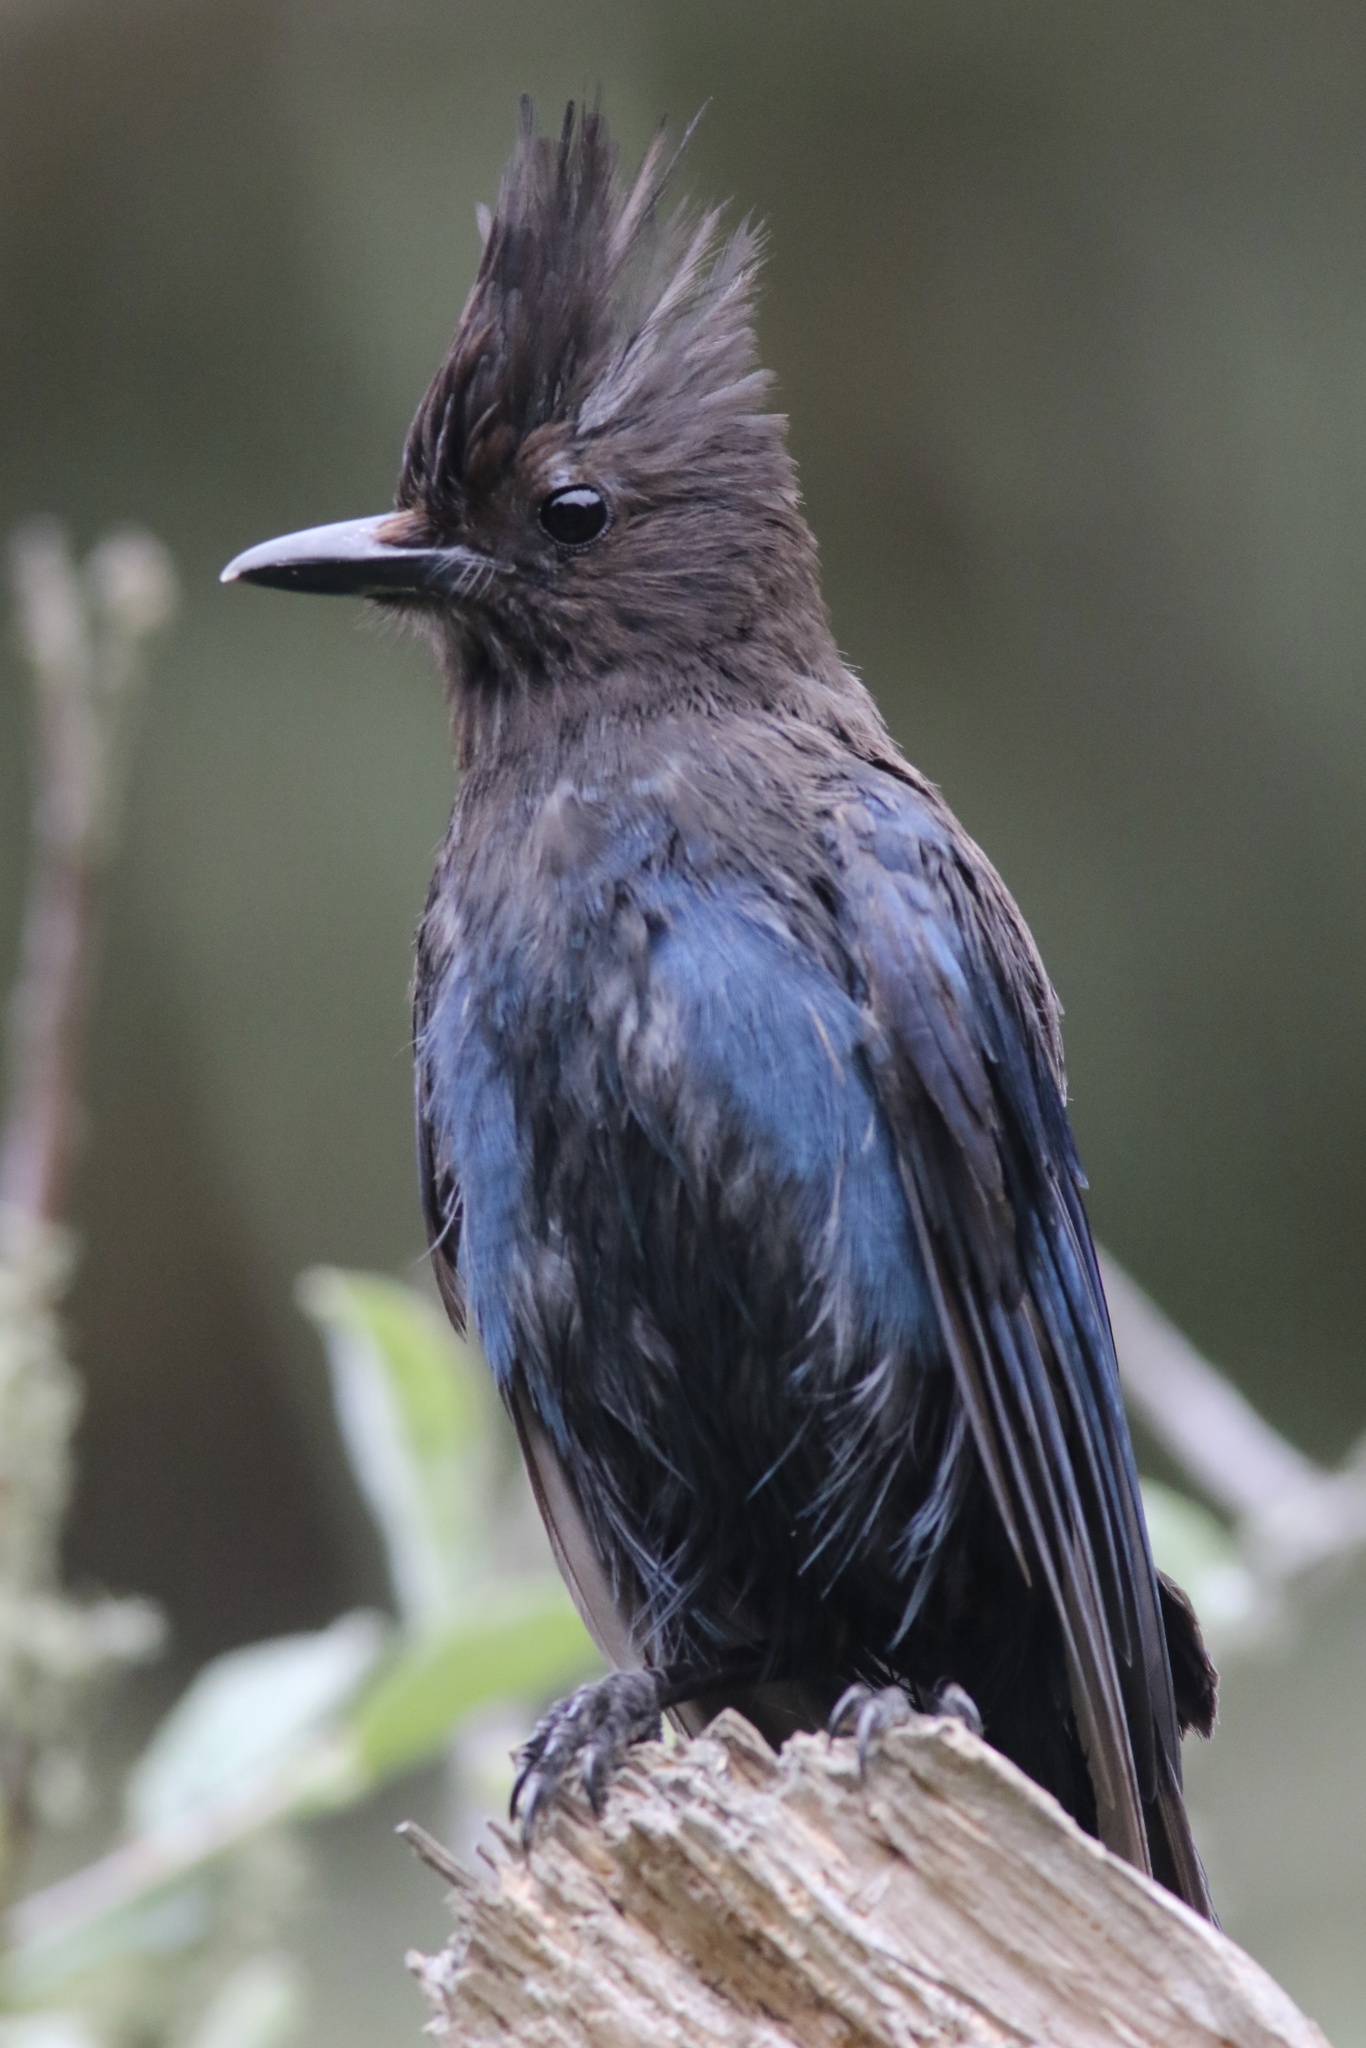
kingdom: Animalia
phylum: Chordata
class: Aves
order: Passeriformes
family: Corvidae
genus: Cyanocitta
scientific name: Cyanocitta stelleri
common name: Steller's jay
